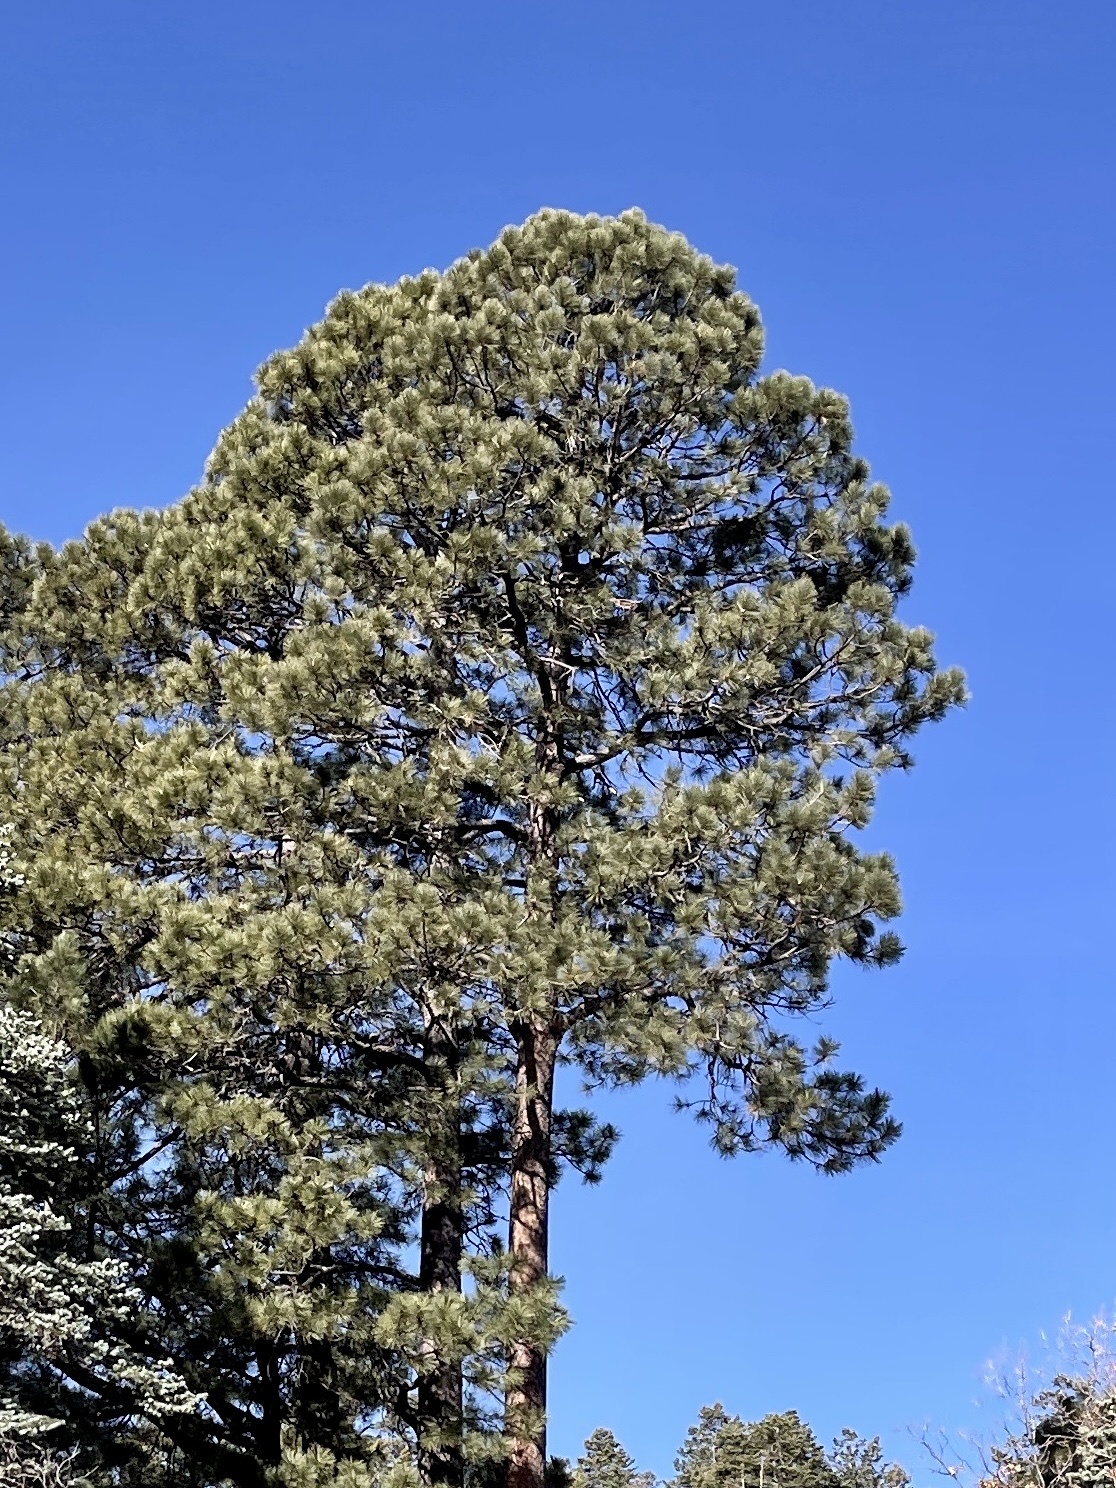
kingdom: Plantae
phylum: Tracheophyta
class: Pinopsida
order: Pinales
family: Pinaceae
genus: Pinus
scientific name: Pinus ponderosa
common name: Western yellow-pine
